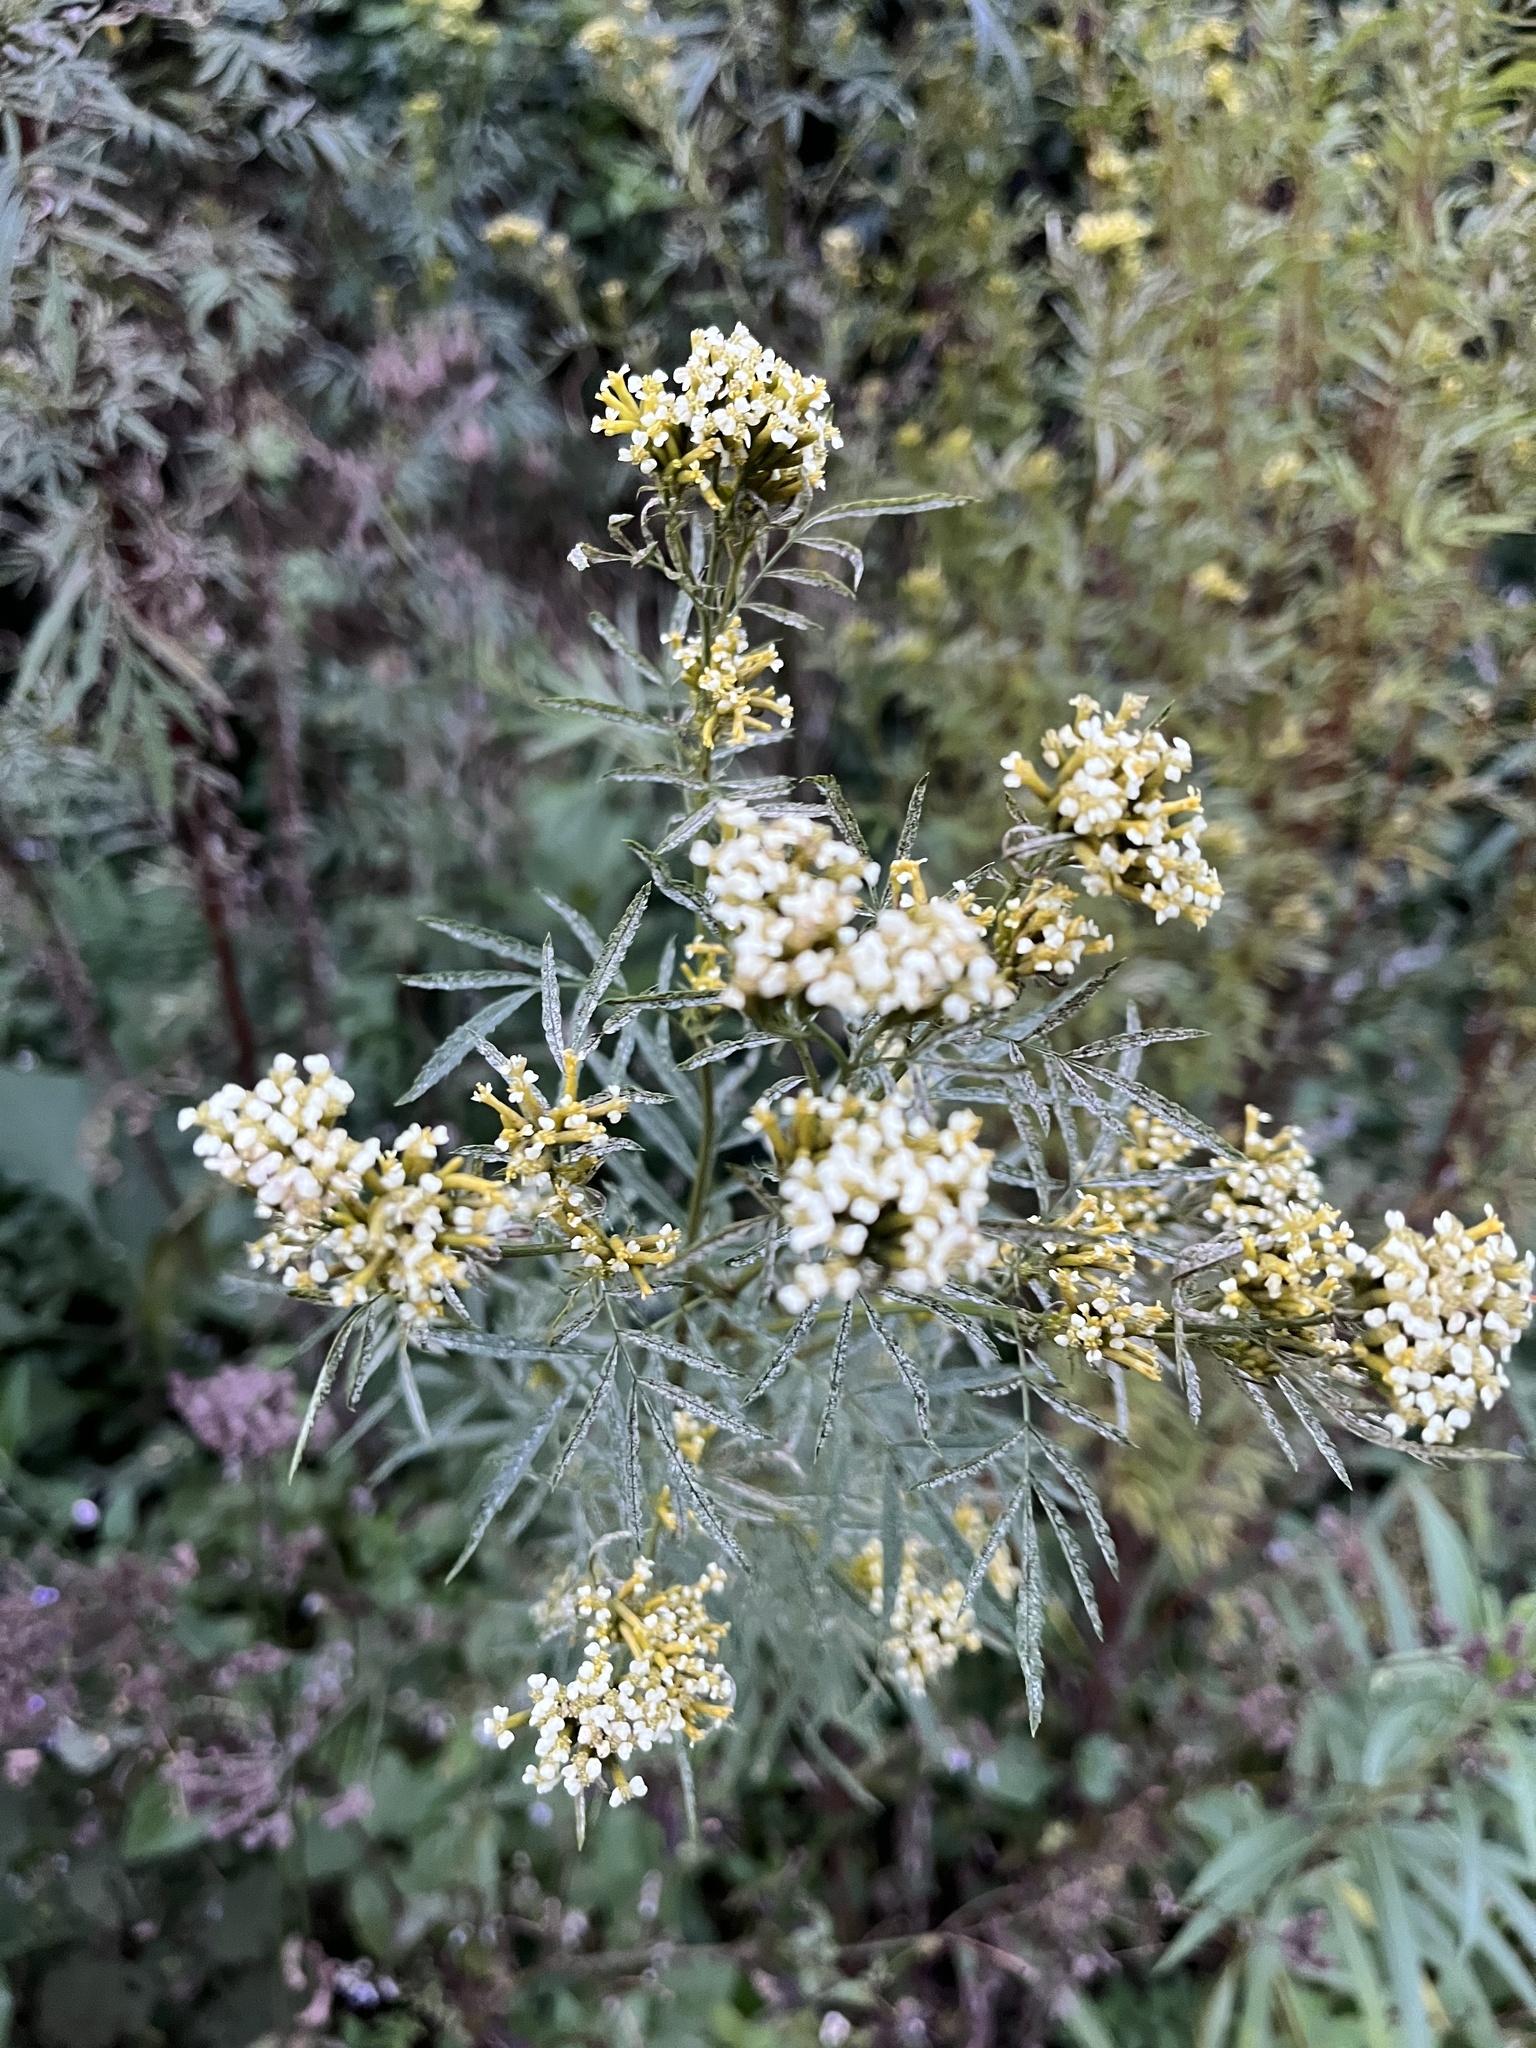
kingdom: Plantae
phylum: Tracheophyta
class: Magnoliopsida
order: Asterales
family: Asteraceae
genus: Tagetes
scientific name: Tagetes minuta
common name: Muster john henry
